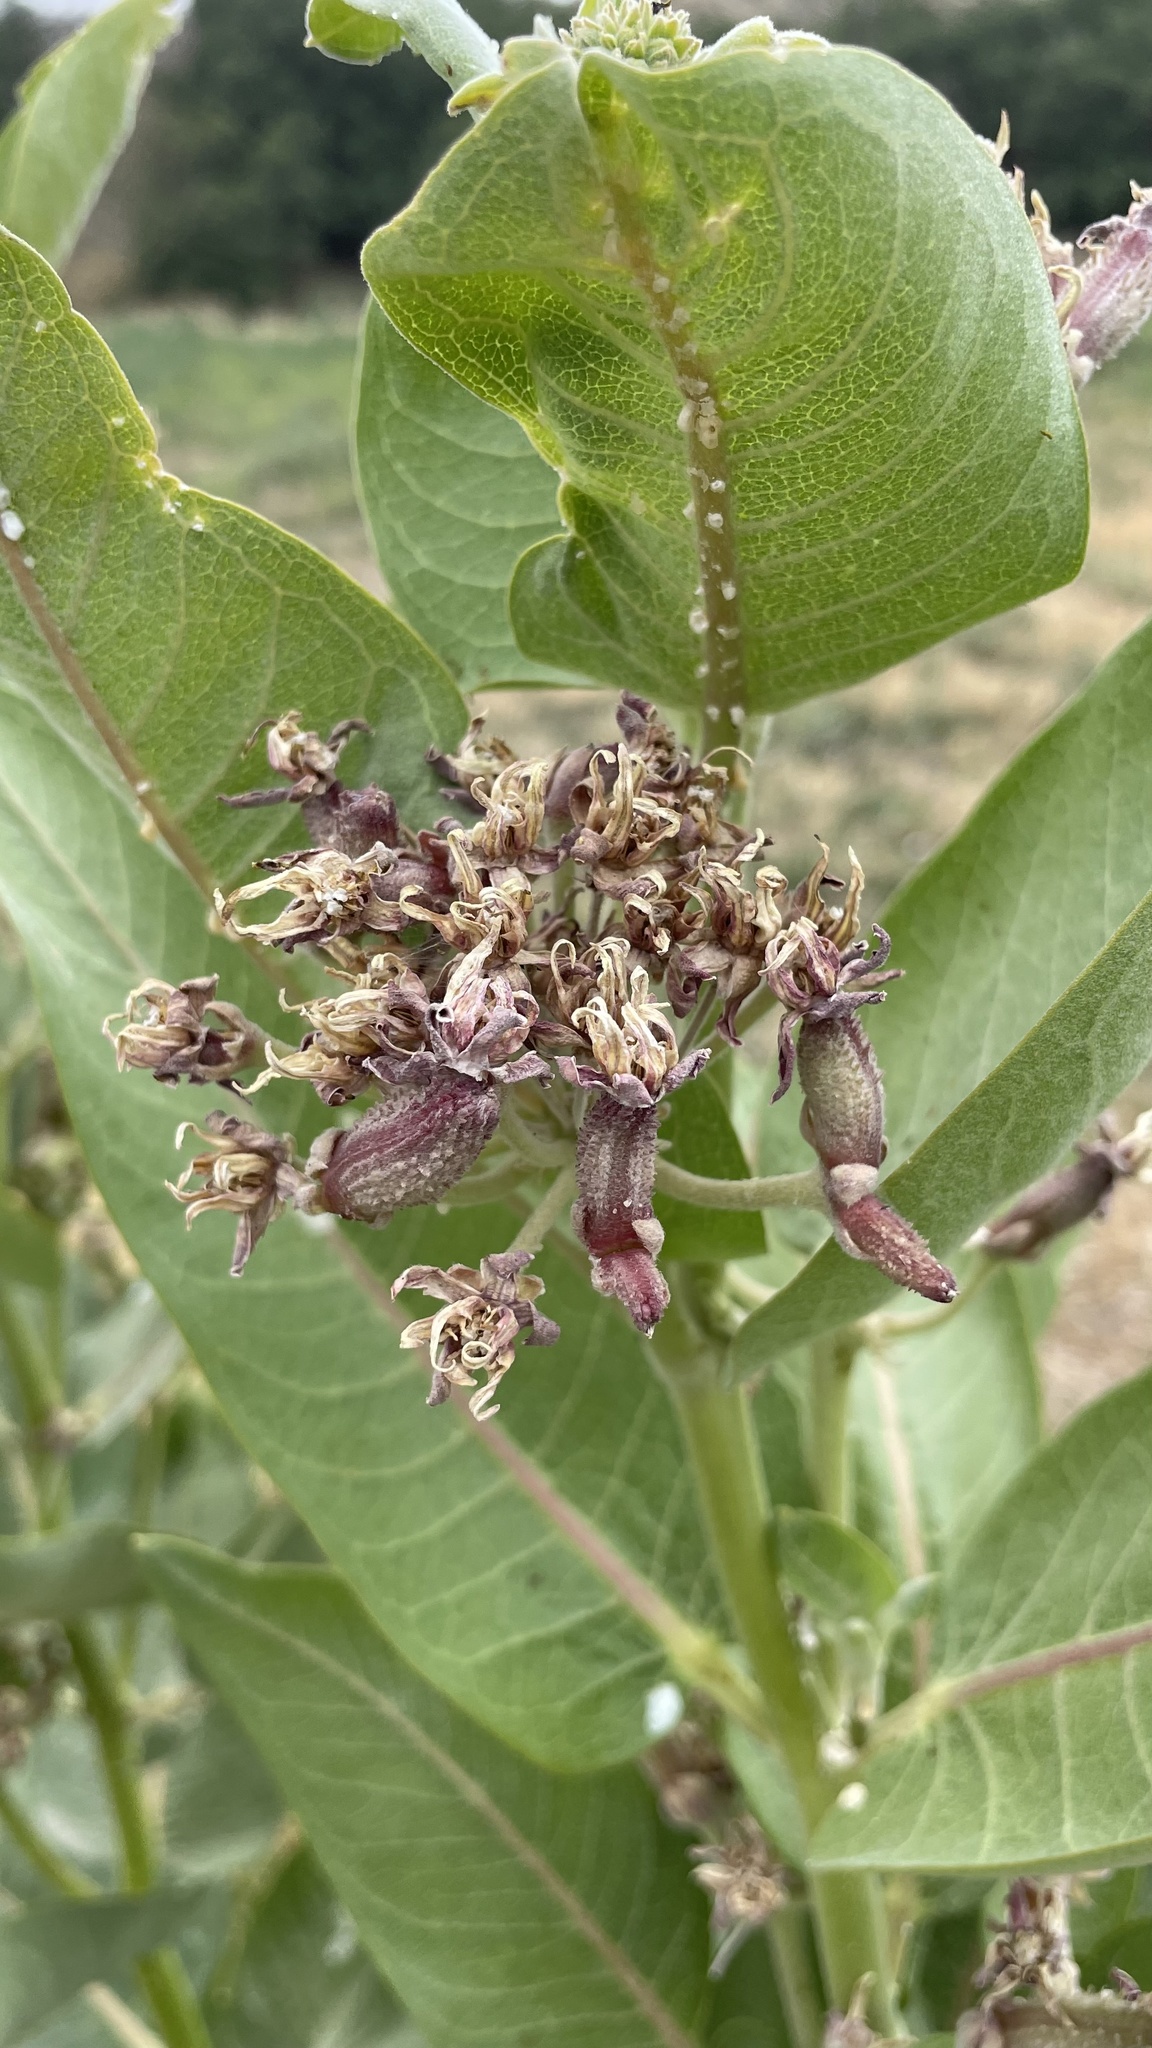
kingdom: Plantae
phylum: Tracheophyta
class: Magnoliopsida
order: Gentianales
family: Apocynaceae
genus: Asclepias
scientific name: Asclepias speciosa
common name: Showy milkweed
